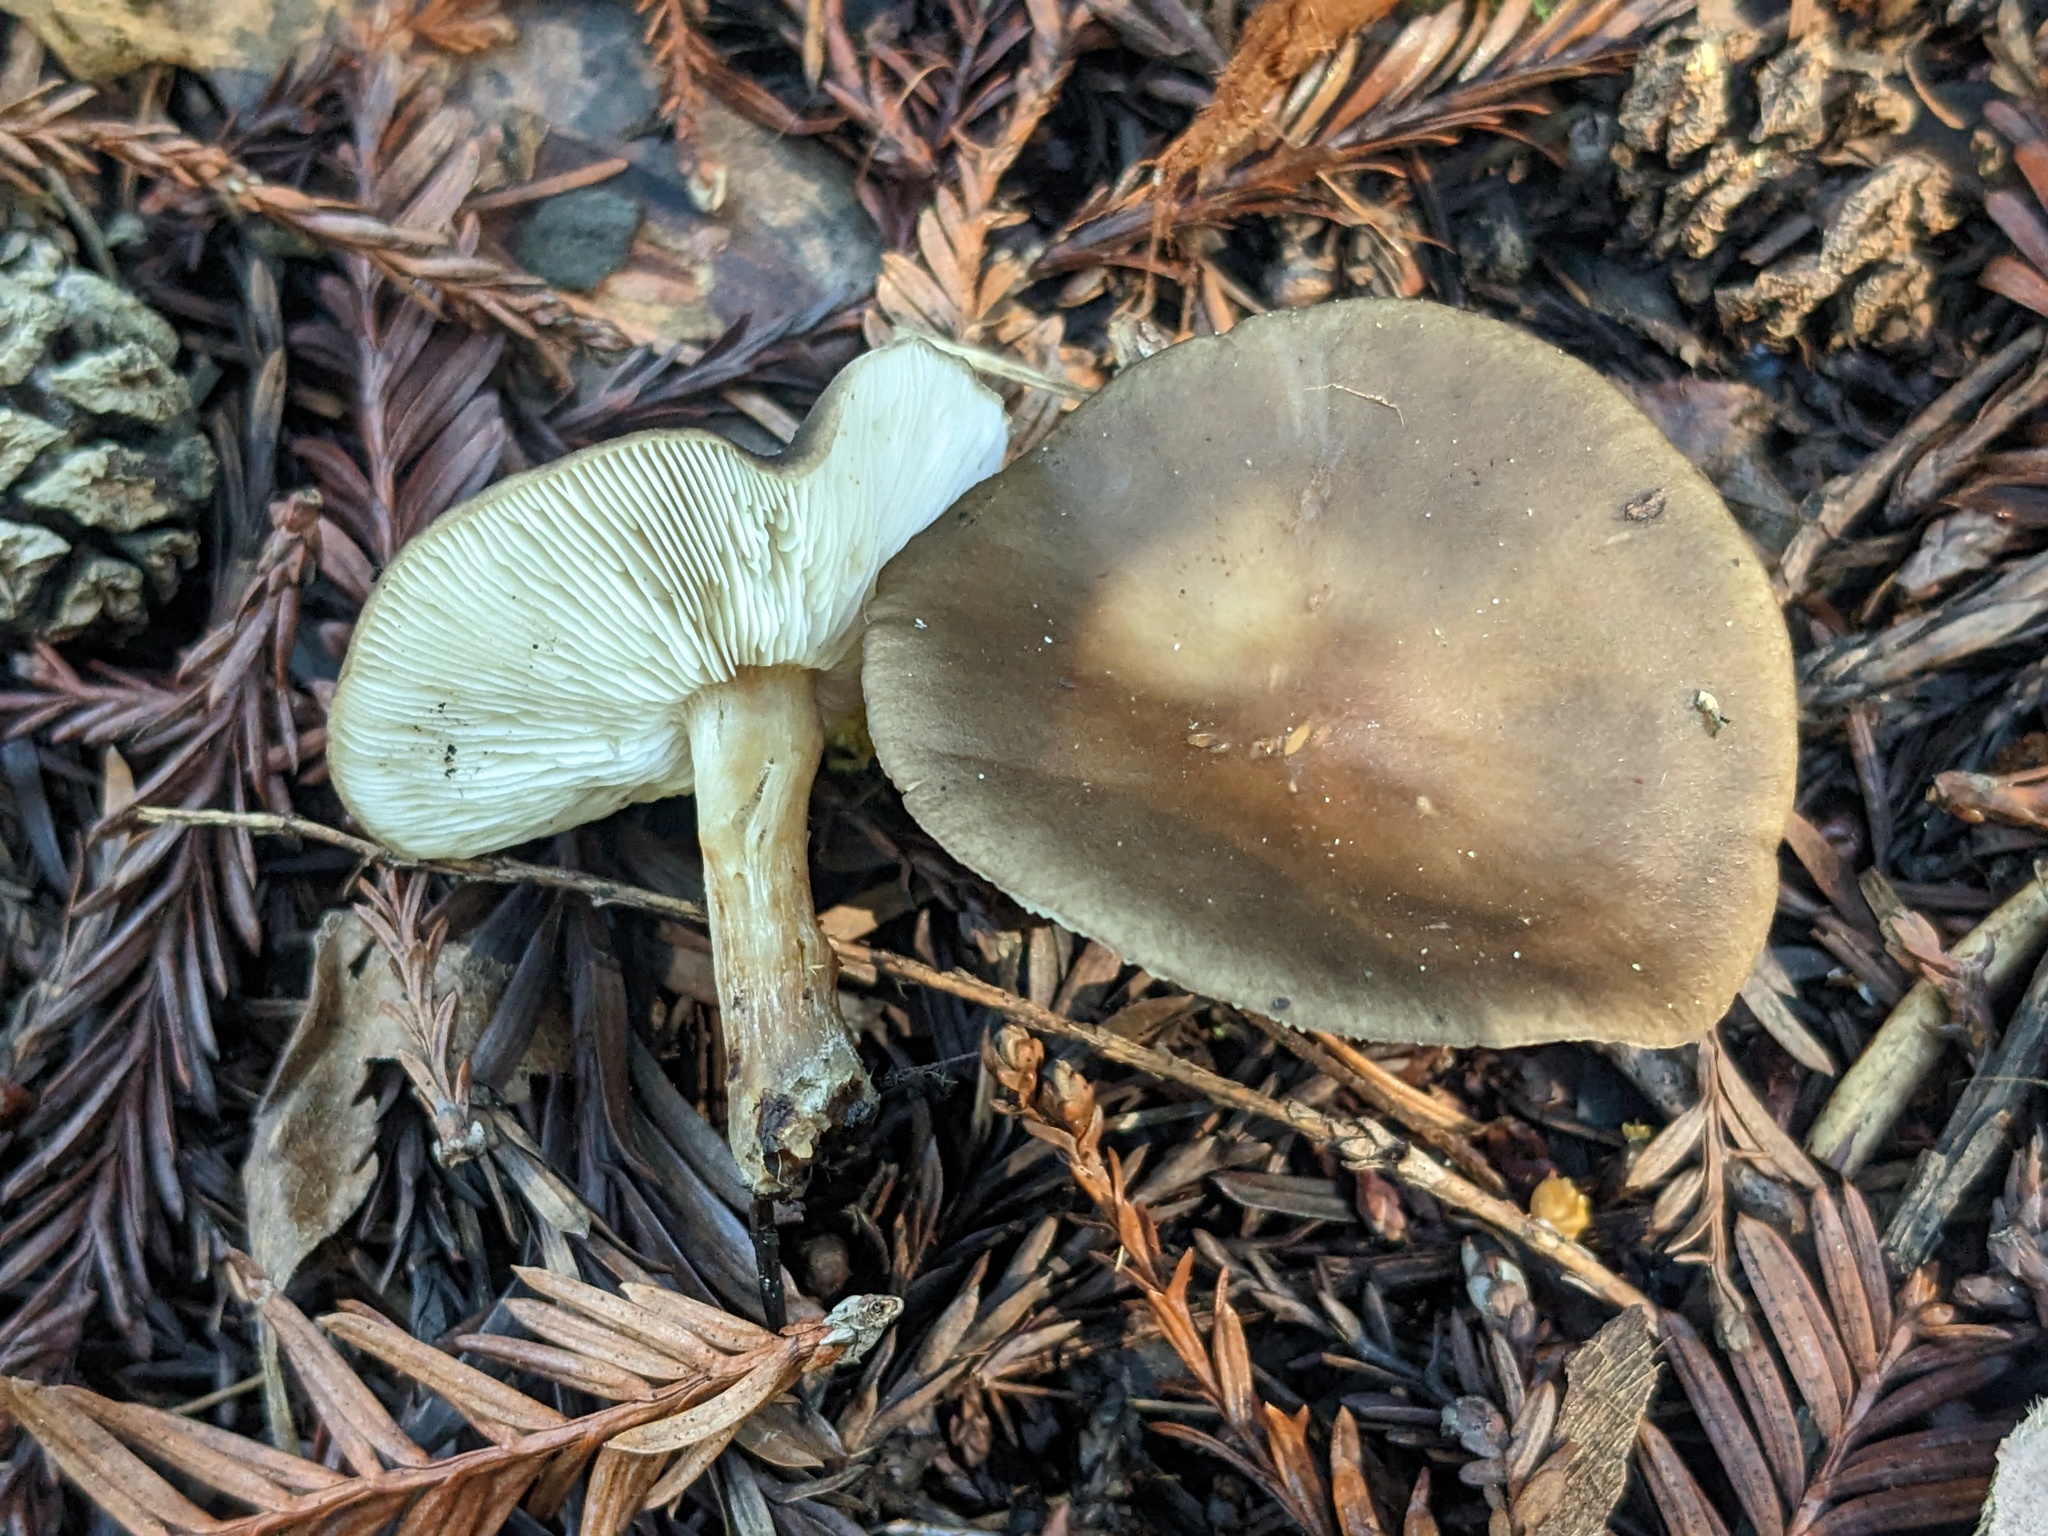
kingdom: Fungi
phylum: Basidiomycota
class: Agaricomycetes
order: Agaricales
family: Tricholomataceae
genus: Melanoleuca
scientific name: Melanoleuca melaleuca
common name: Bald cavalier
